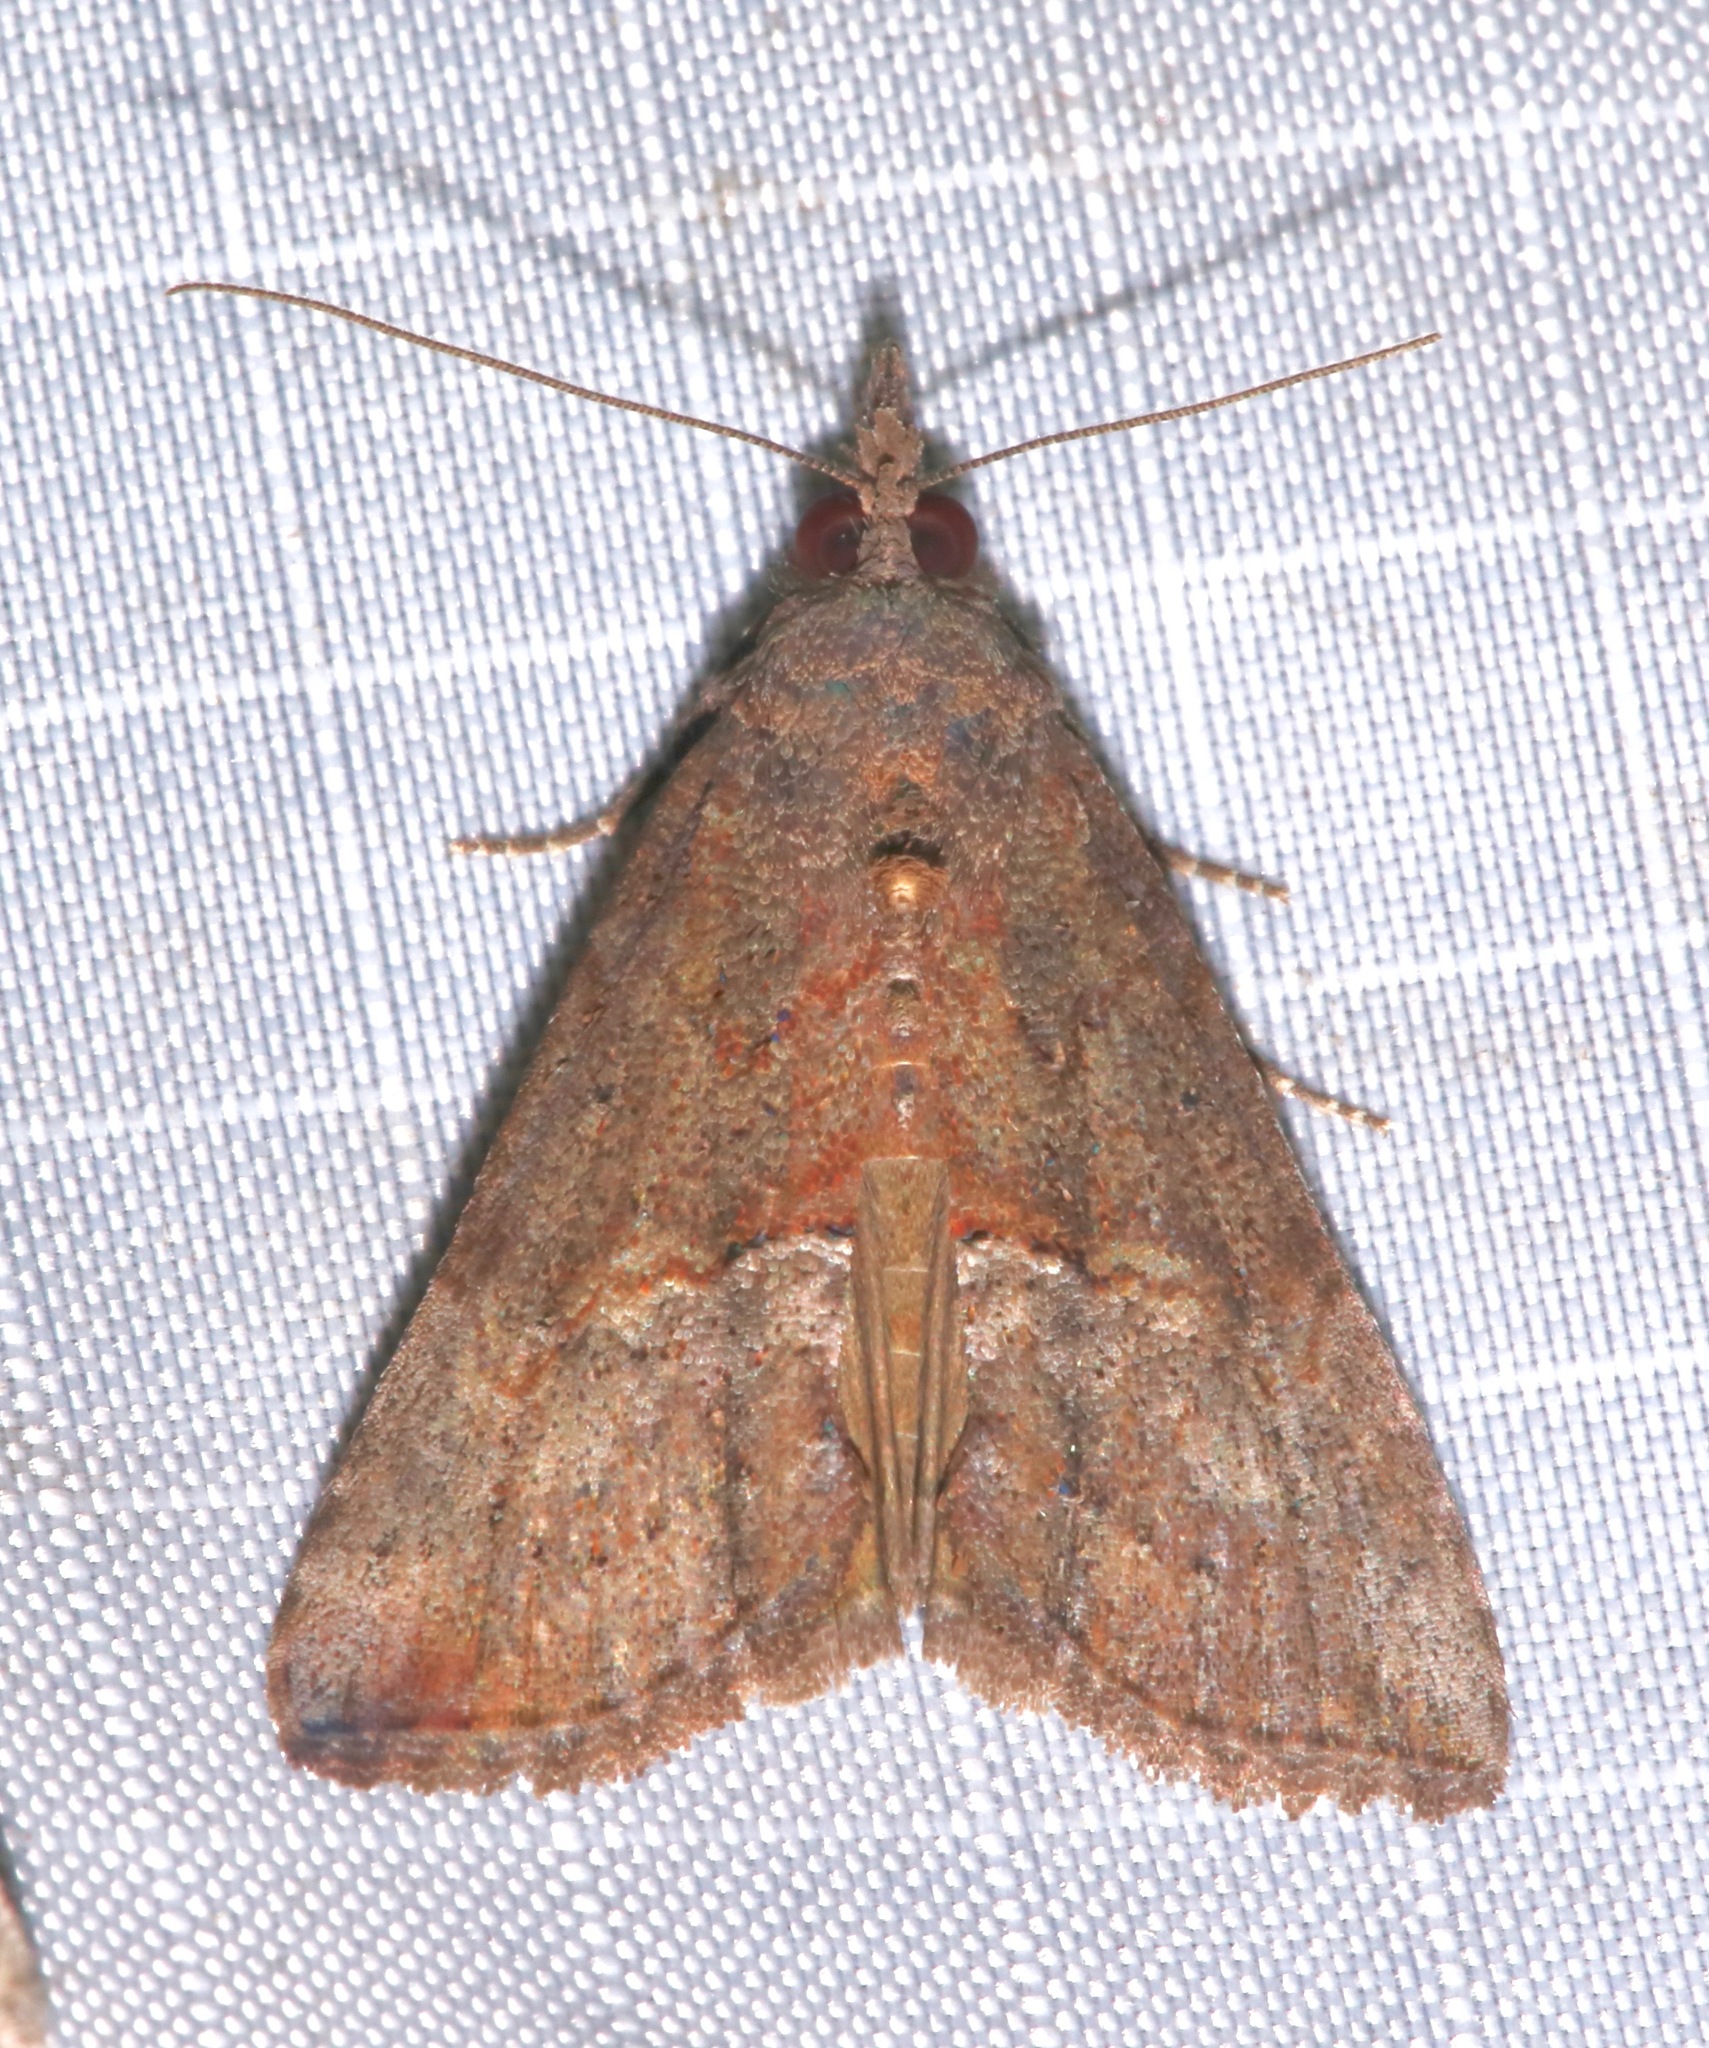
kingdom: Animalia
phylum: Arthropoda
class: Insecta
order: Lepidoptera
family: Erebidae
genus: Hypena
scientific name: Hypena scabra
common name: Green cloverworm
